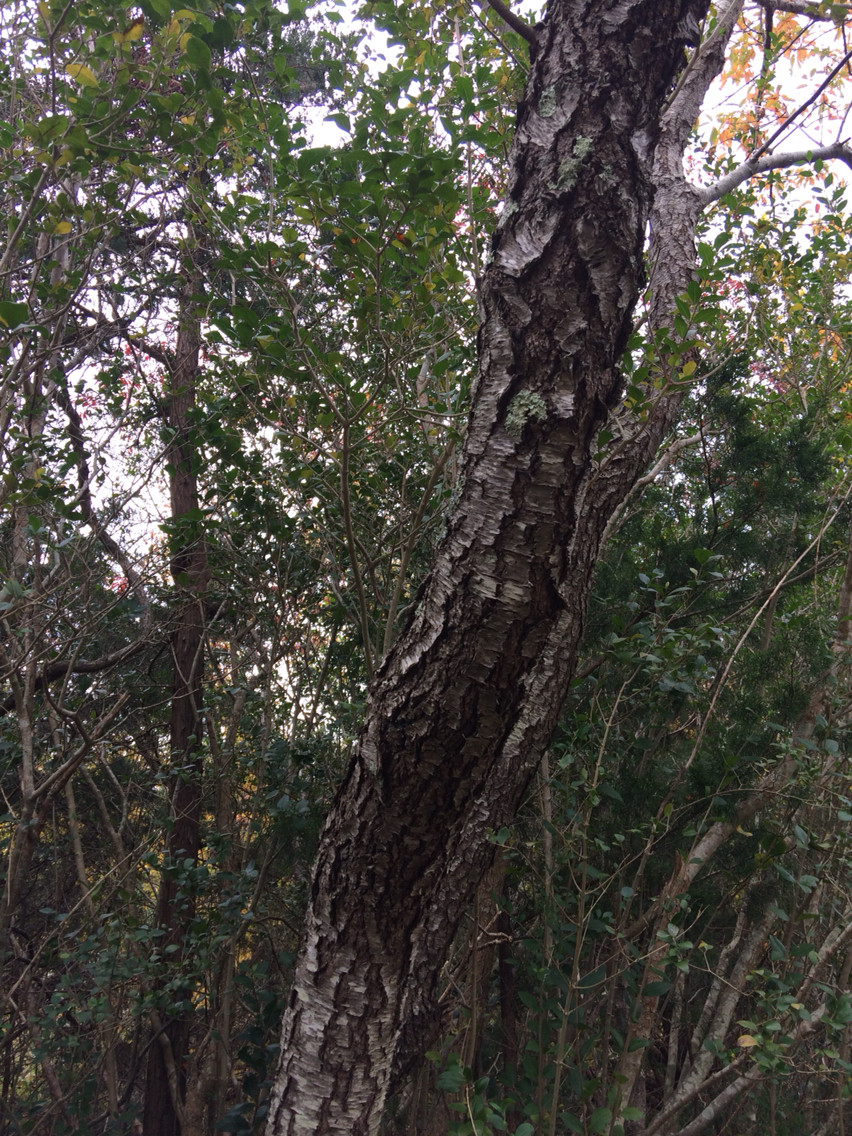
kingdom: Plantae
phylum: Tracheophyta
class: Magnoliopsida
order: Rosales
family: Rosaceae
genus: Prunus
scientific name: Prunus serotina
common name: Black cherry
